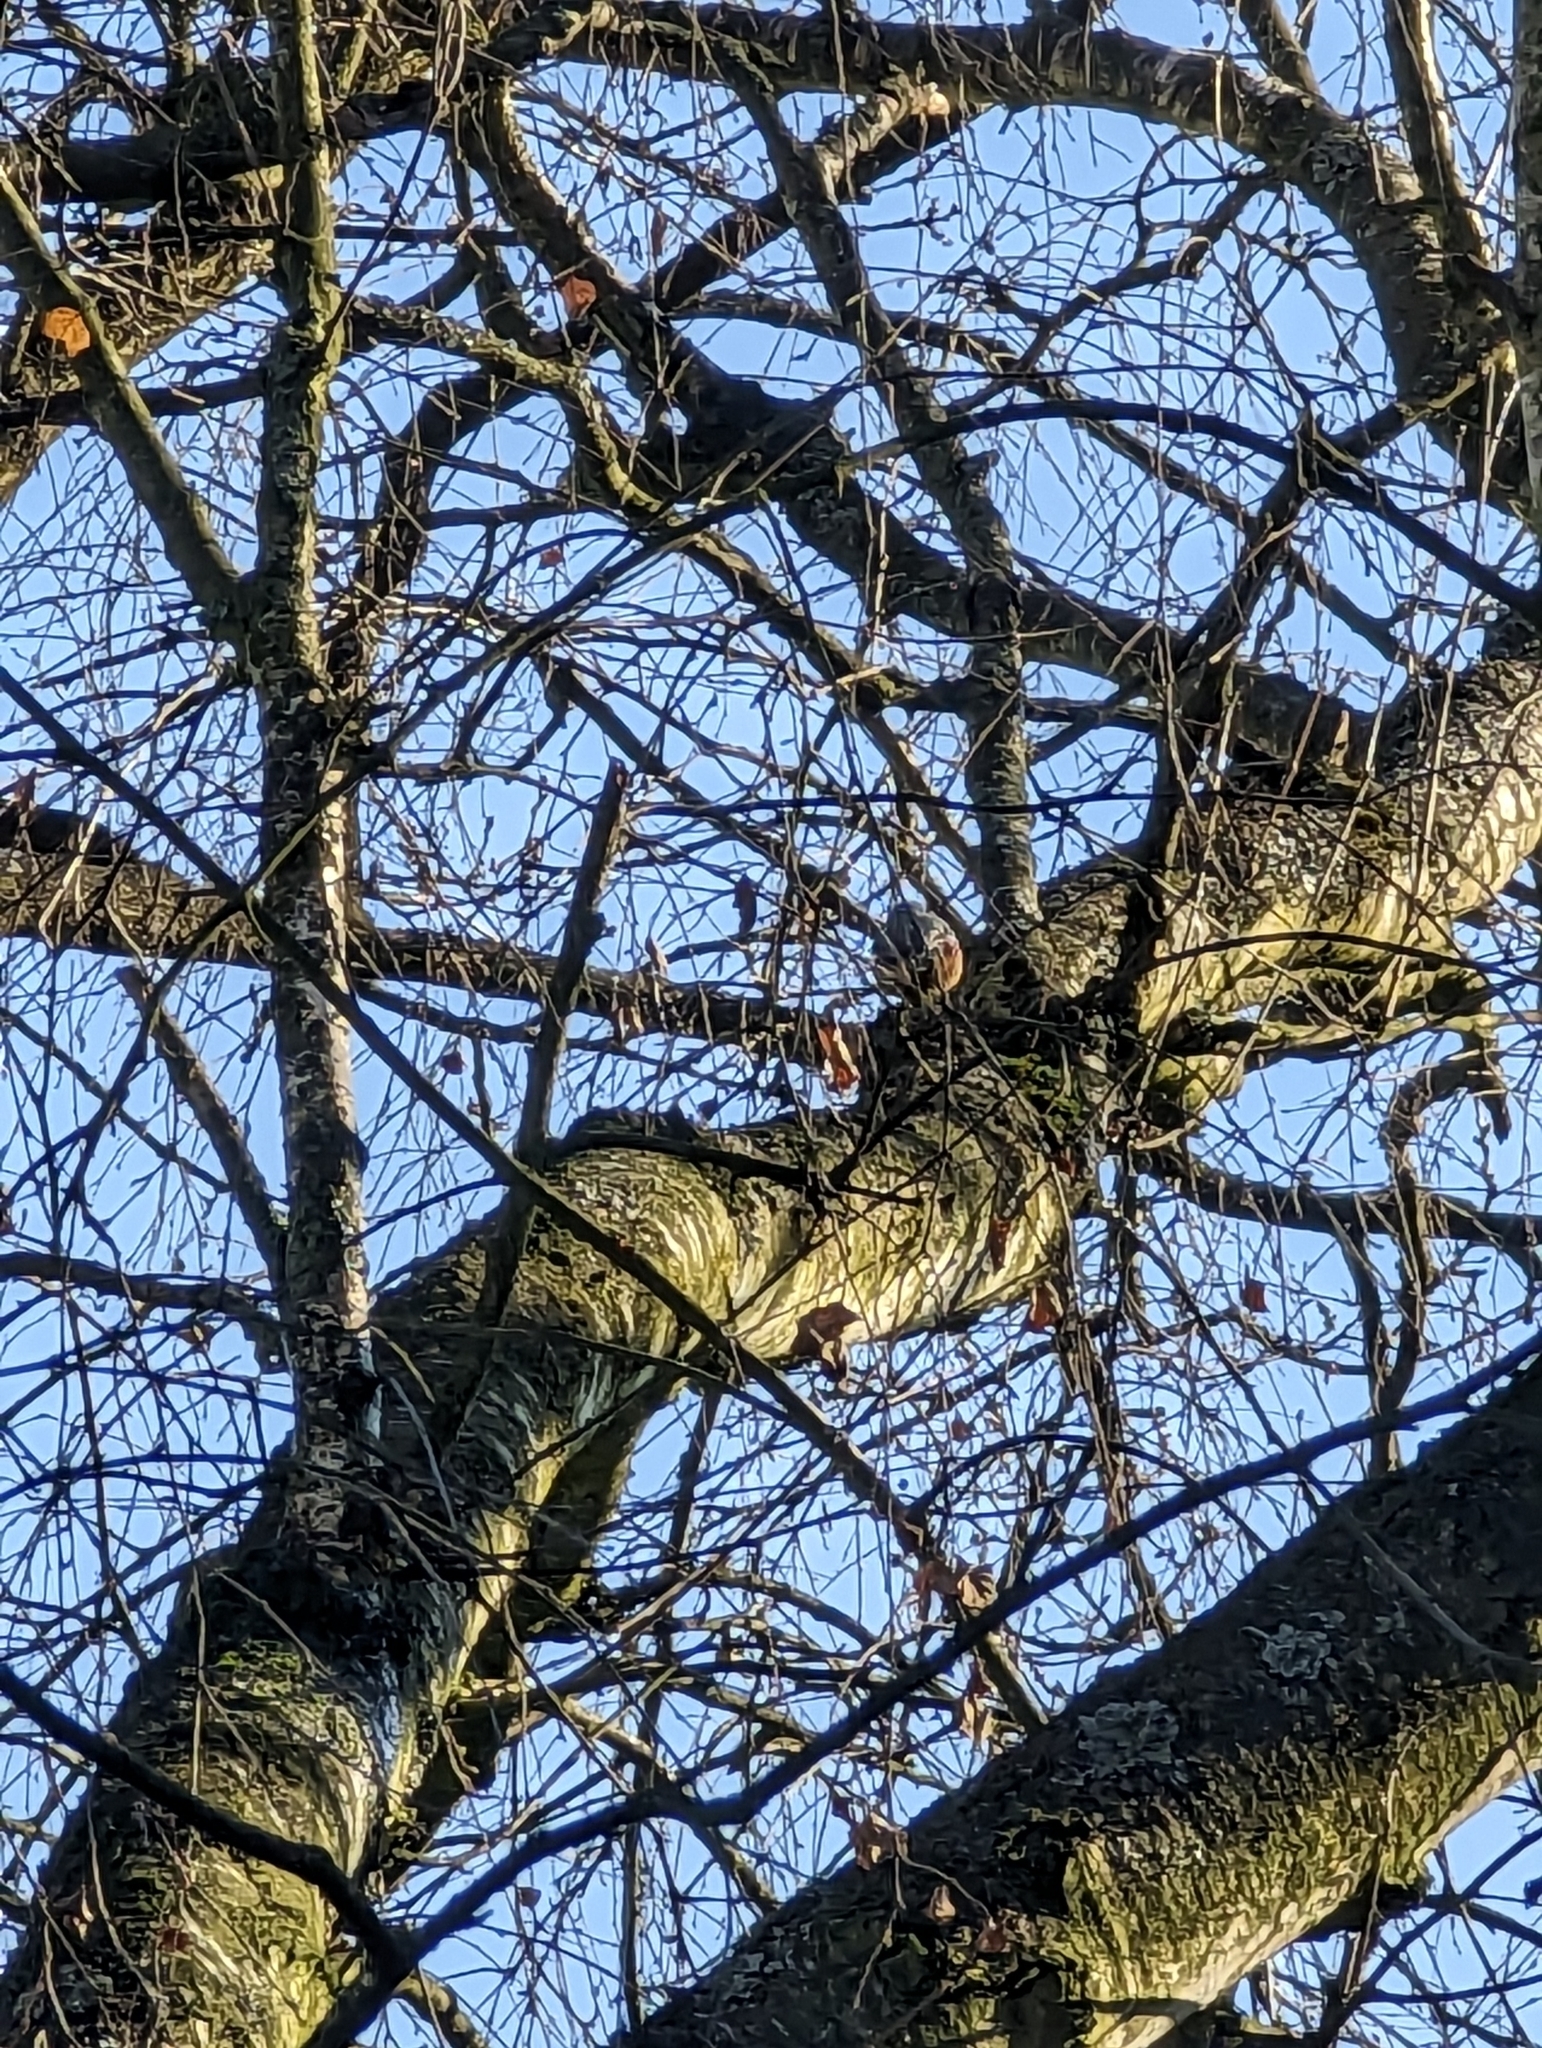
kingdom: Animalia
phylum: Chordata
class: Aves
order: Passeriformes
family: Sittidae
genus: Sitta
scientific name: Sitta europaea
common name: Eurasian nuthatch
